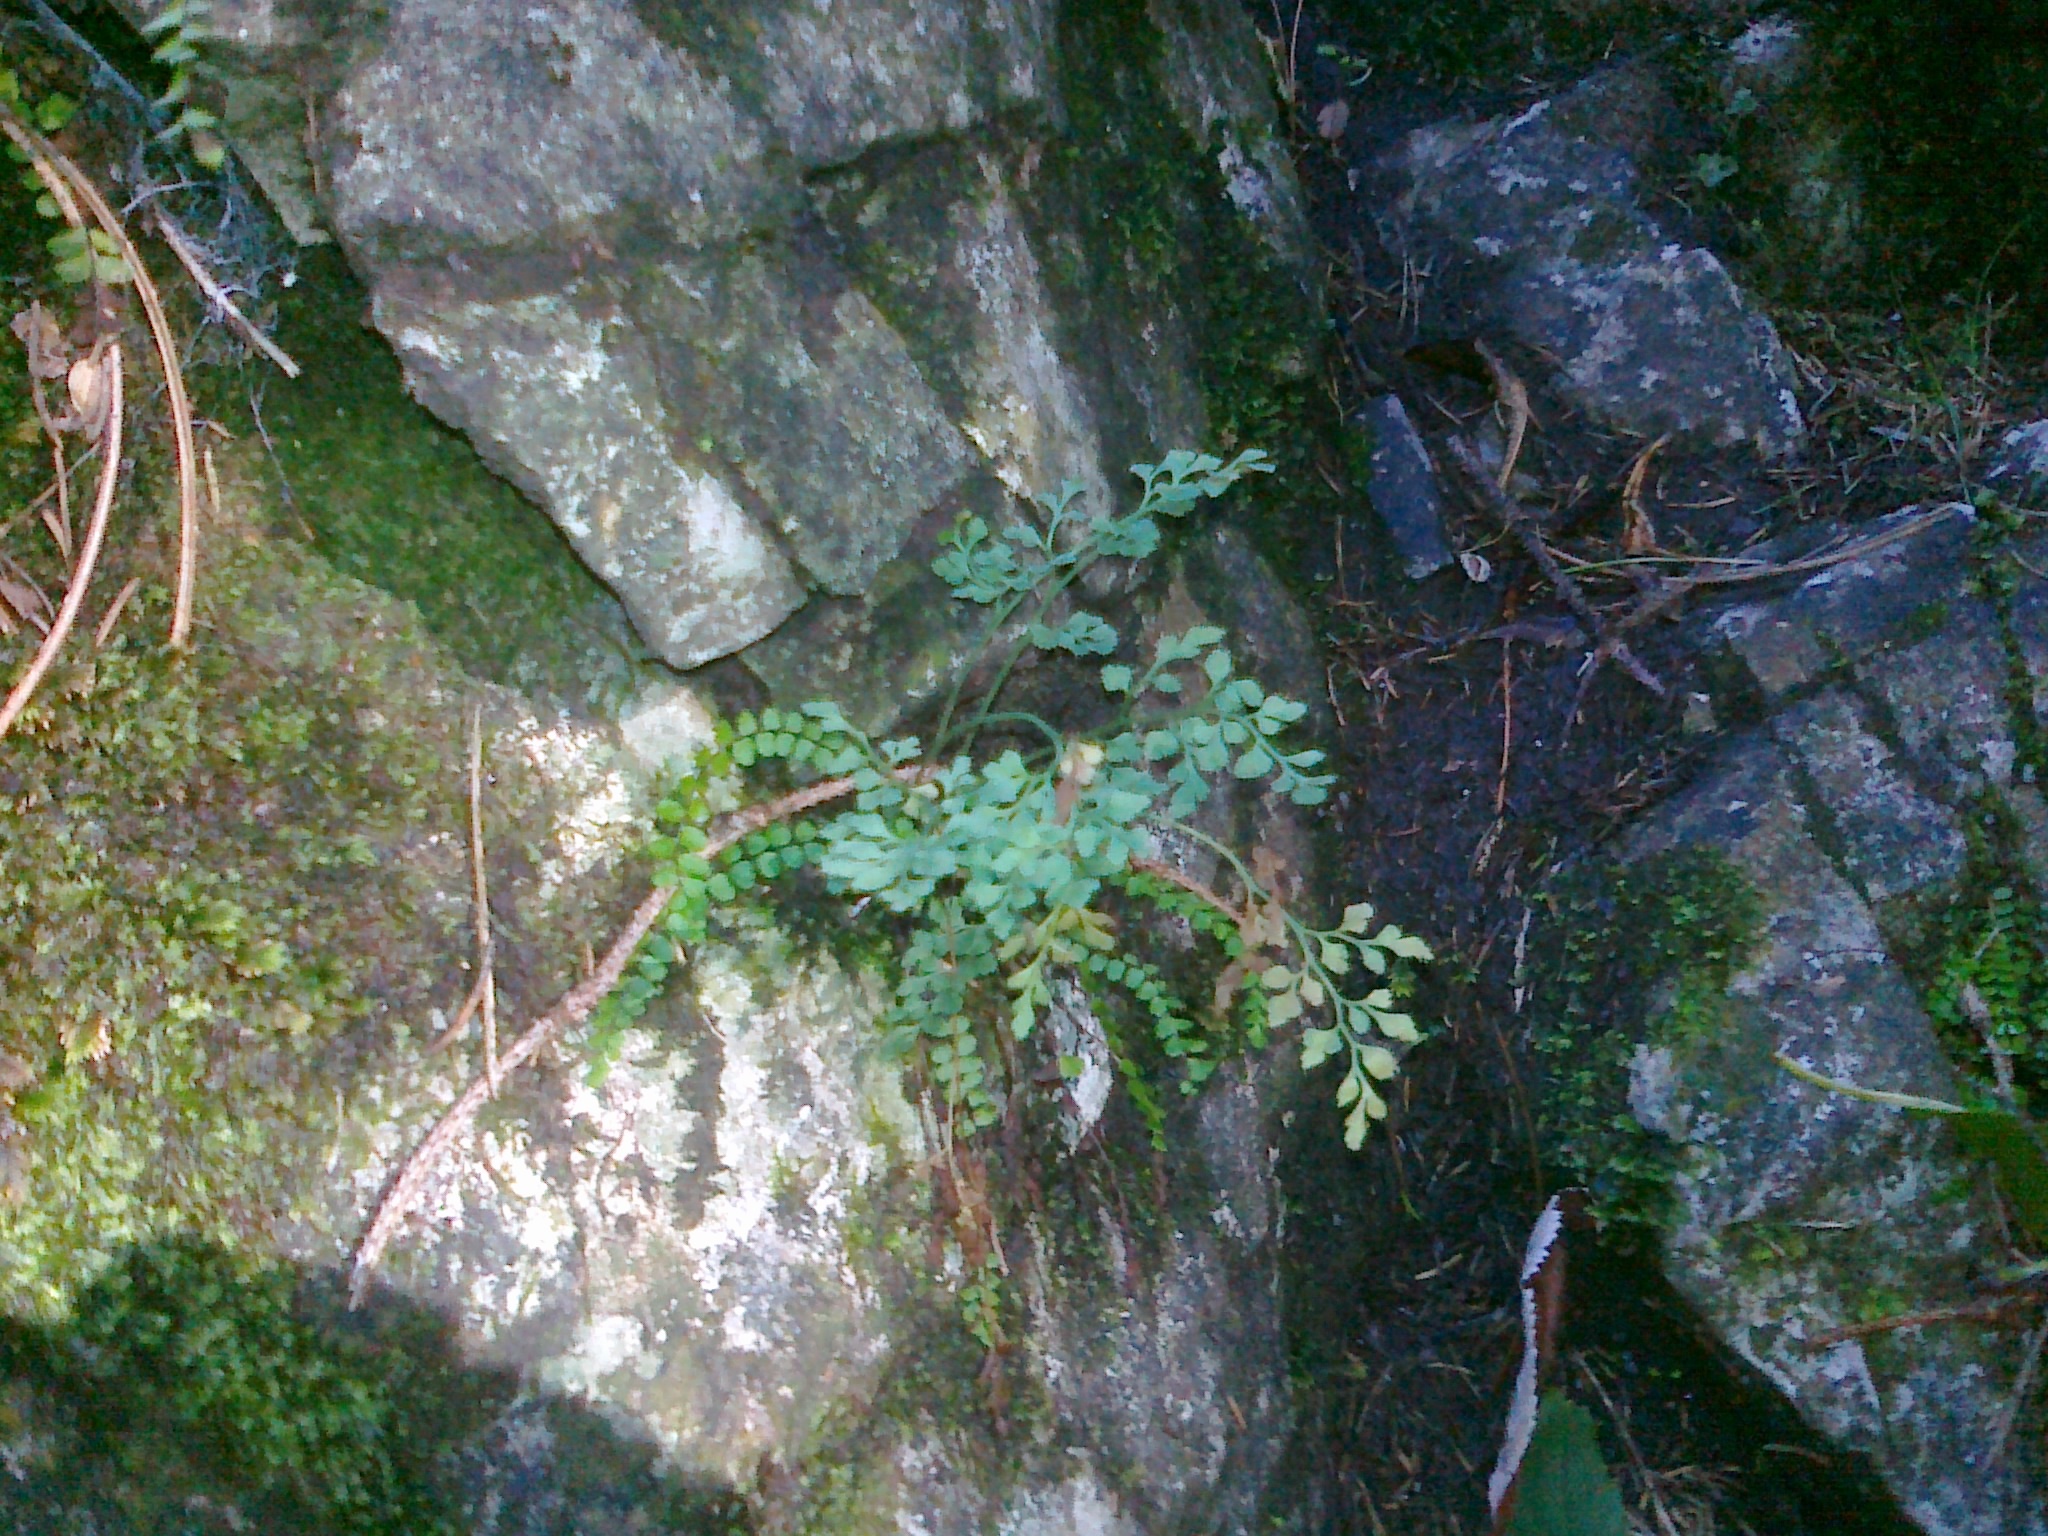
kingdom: Plantae
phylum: Tracheophyta
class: Polypodiopsida
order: Polypodiales
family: Aspleniaceae
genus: Asplenium
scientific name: Asplenium ruta-muraria
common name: Wall-rue
